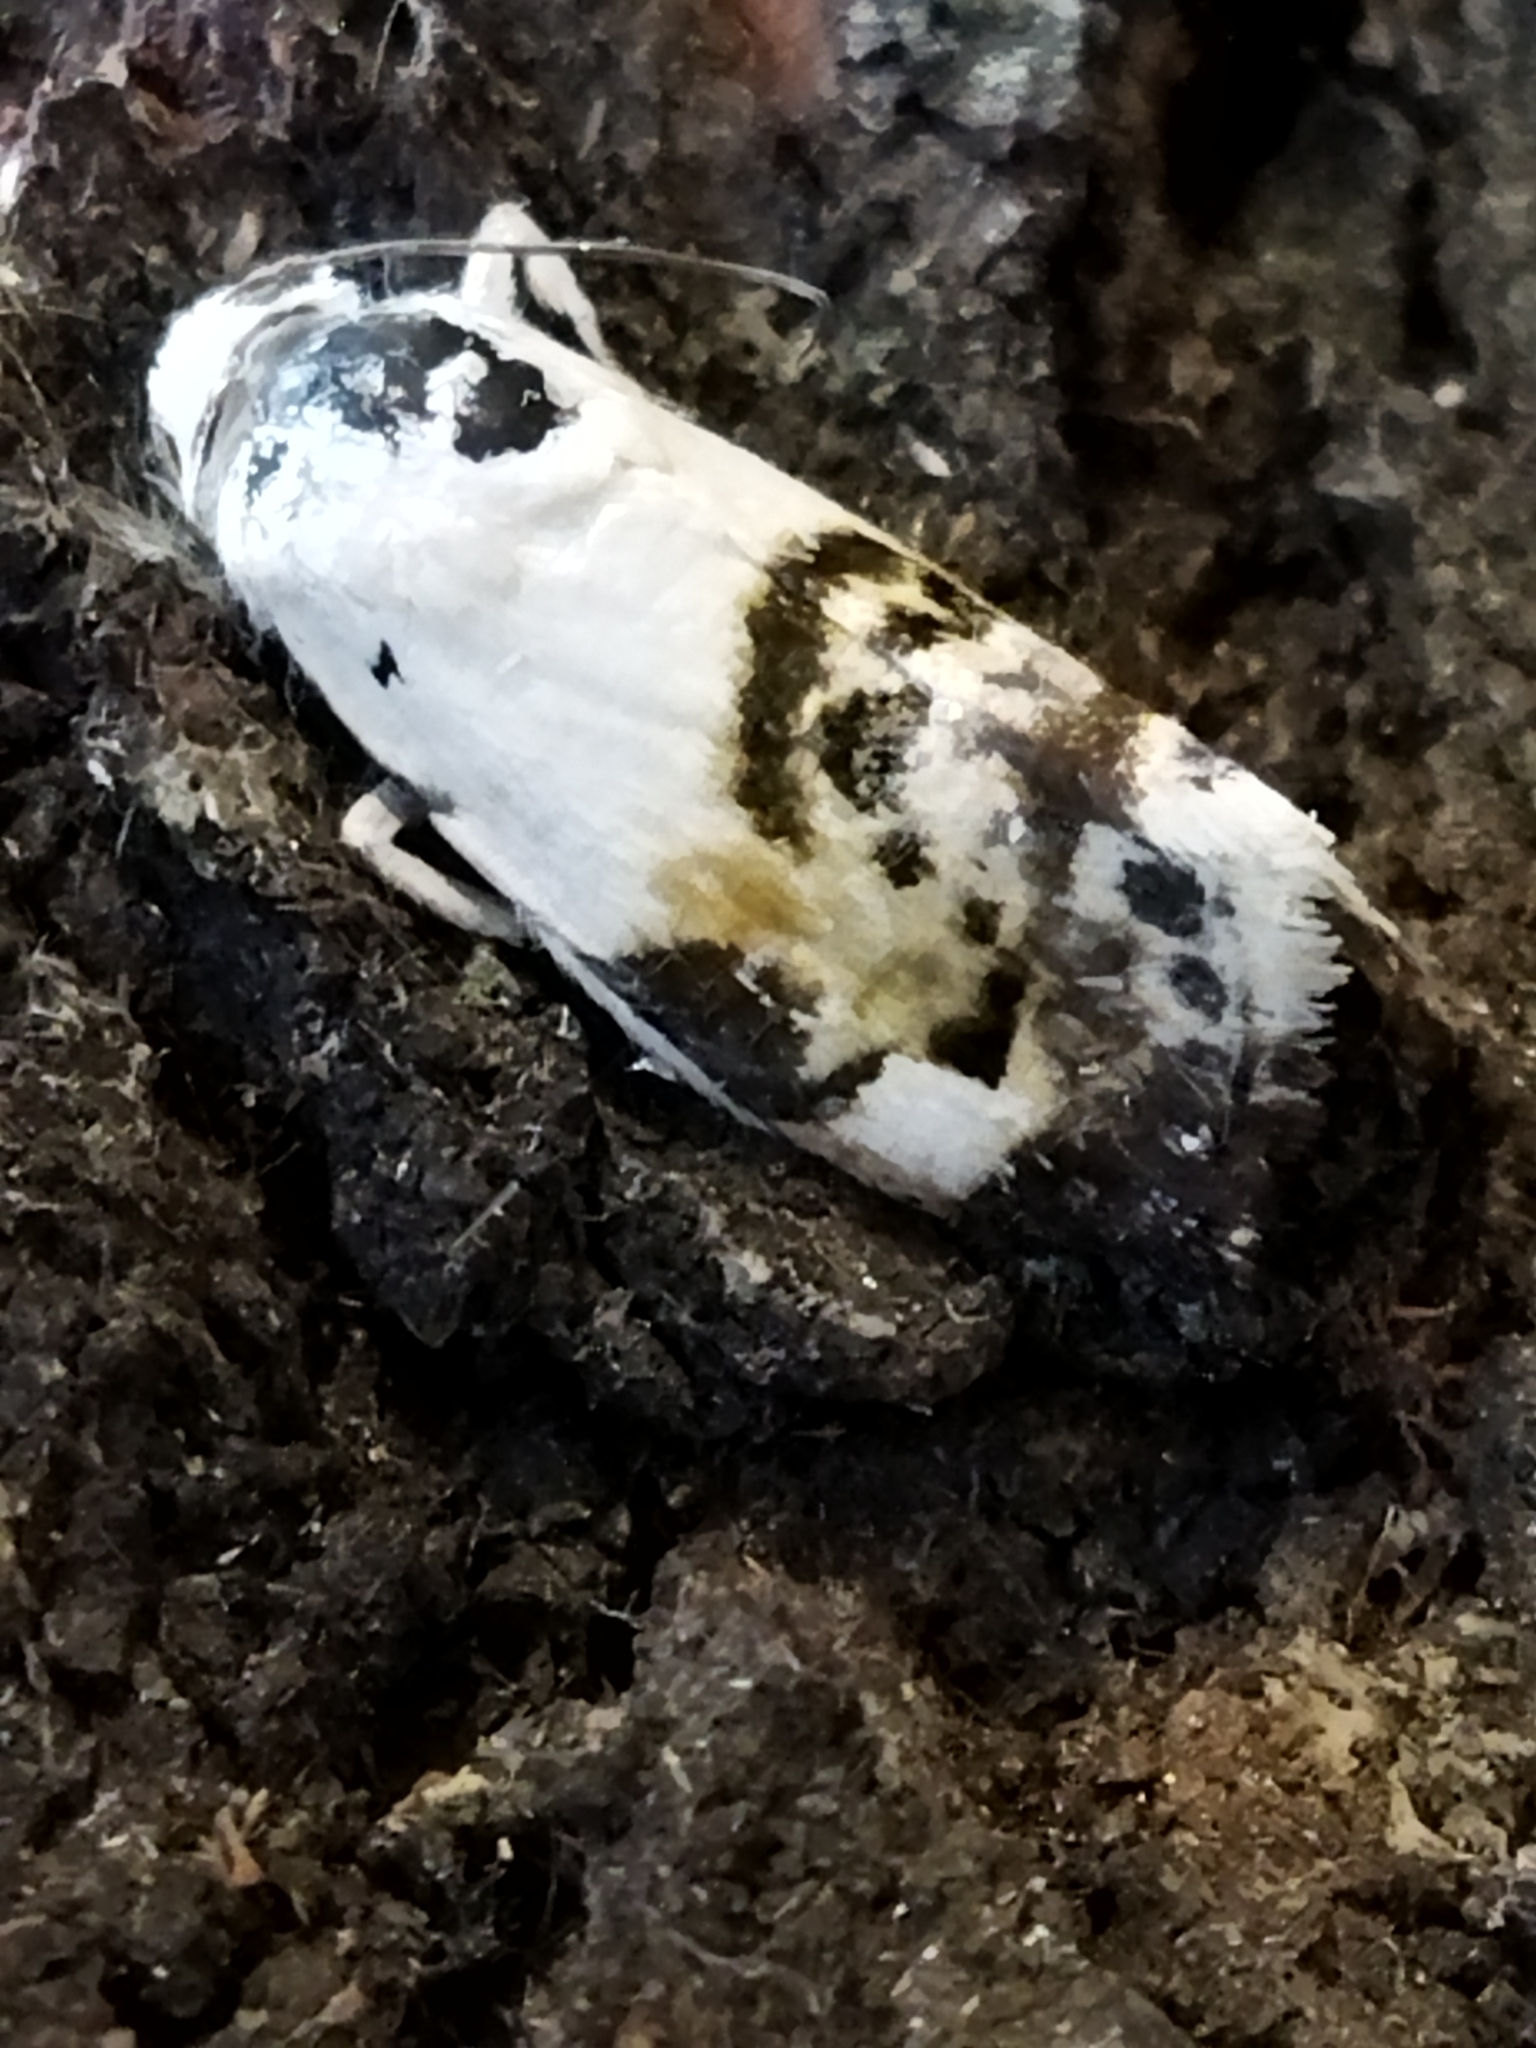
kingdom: Animalia
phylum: Arthropoda
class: Insecta
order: Lepidoptera
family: Noctuidae
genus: Acontia
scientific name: Acontia lucida
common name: Pale shoulder
